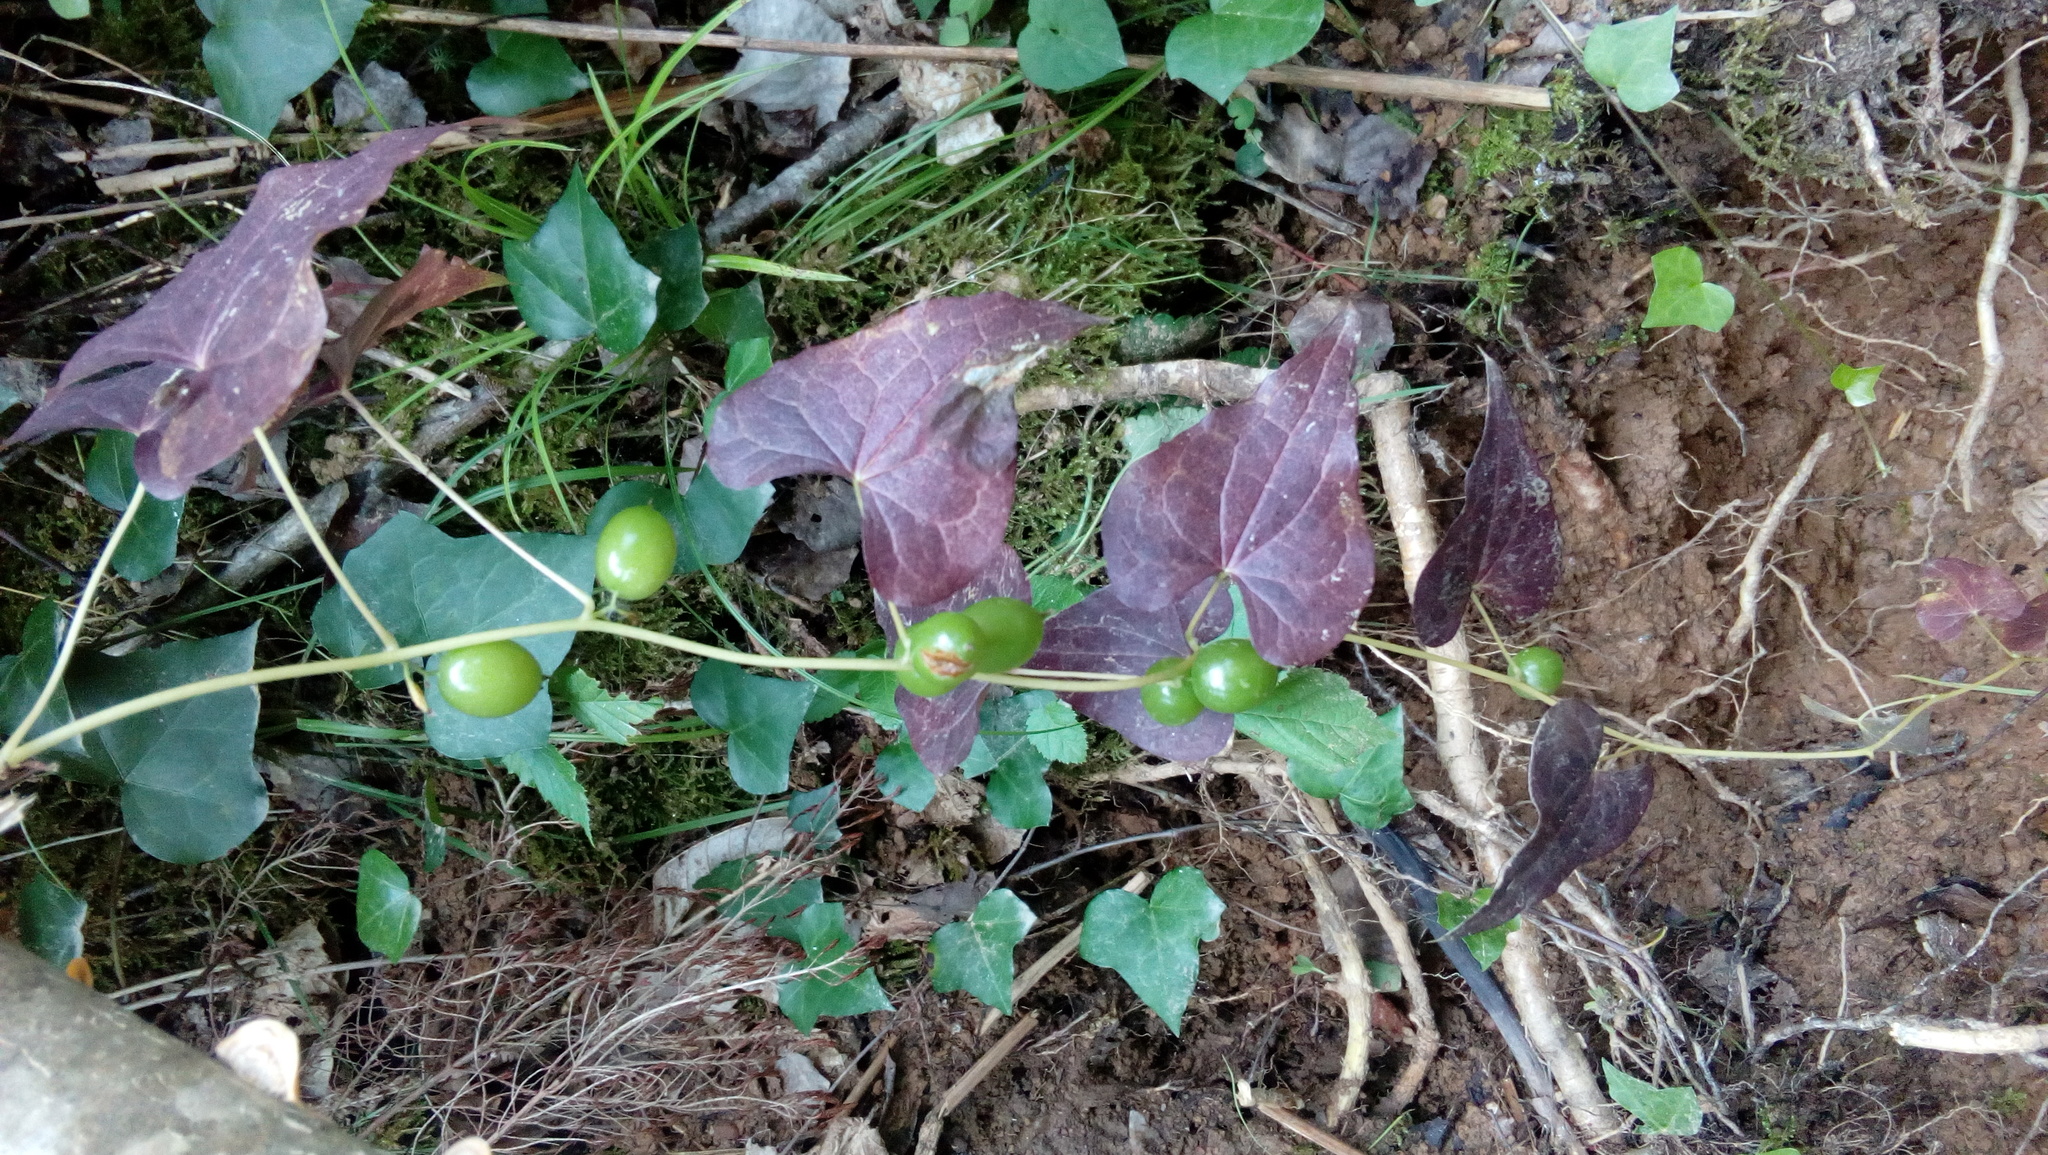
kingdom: Plantae
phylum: Tracheophyta
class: Liliopsida
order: Dioscoreales
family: Dioscoreaceae
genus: Dioscorea
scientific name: Dioscorea communis
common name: Black-bindweed
